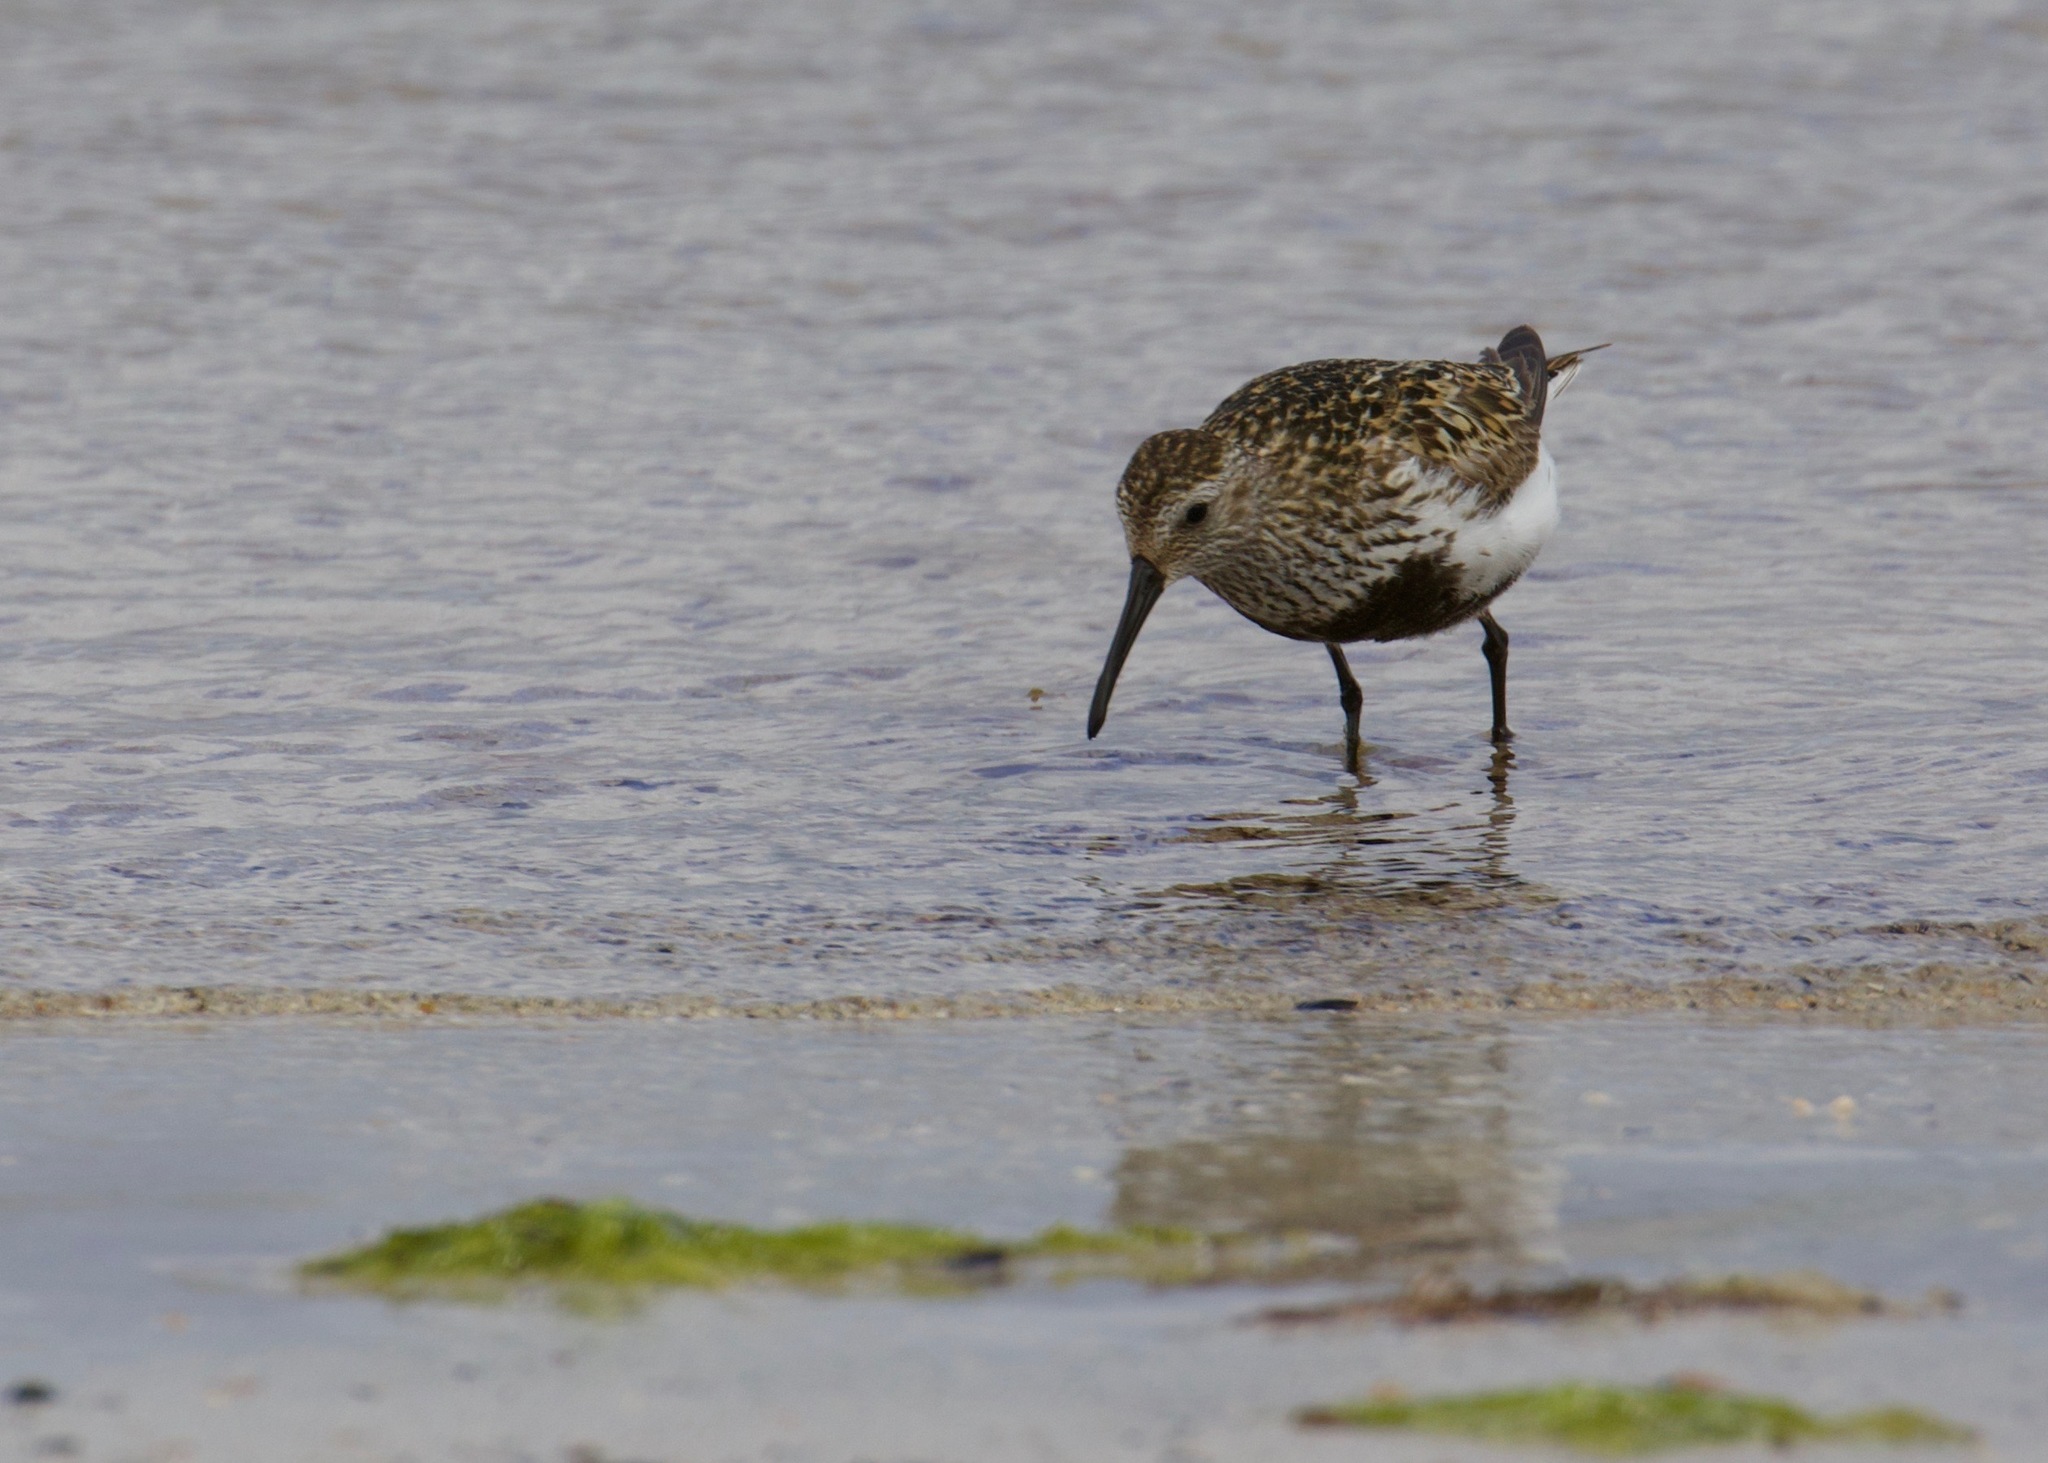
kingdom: Animalia
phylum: Chordata
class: Aves
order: Charadriiformes
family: Scolopacidae
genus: Calidris
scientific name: Calidris alpina
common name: Dunlin
